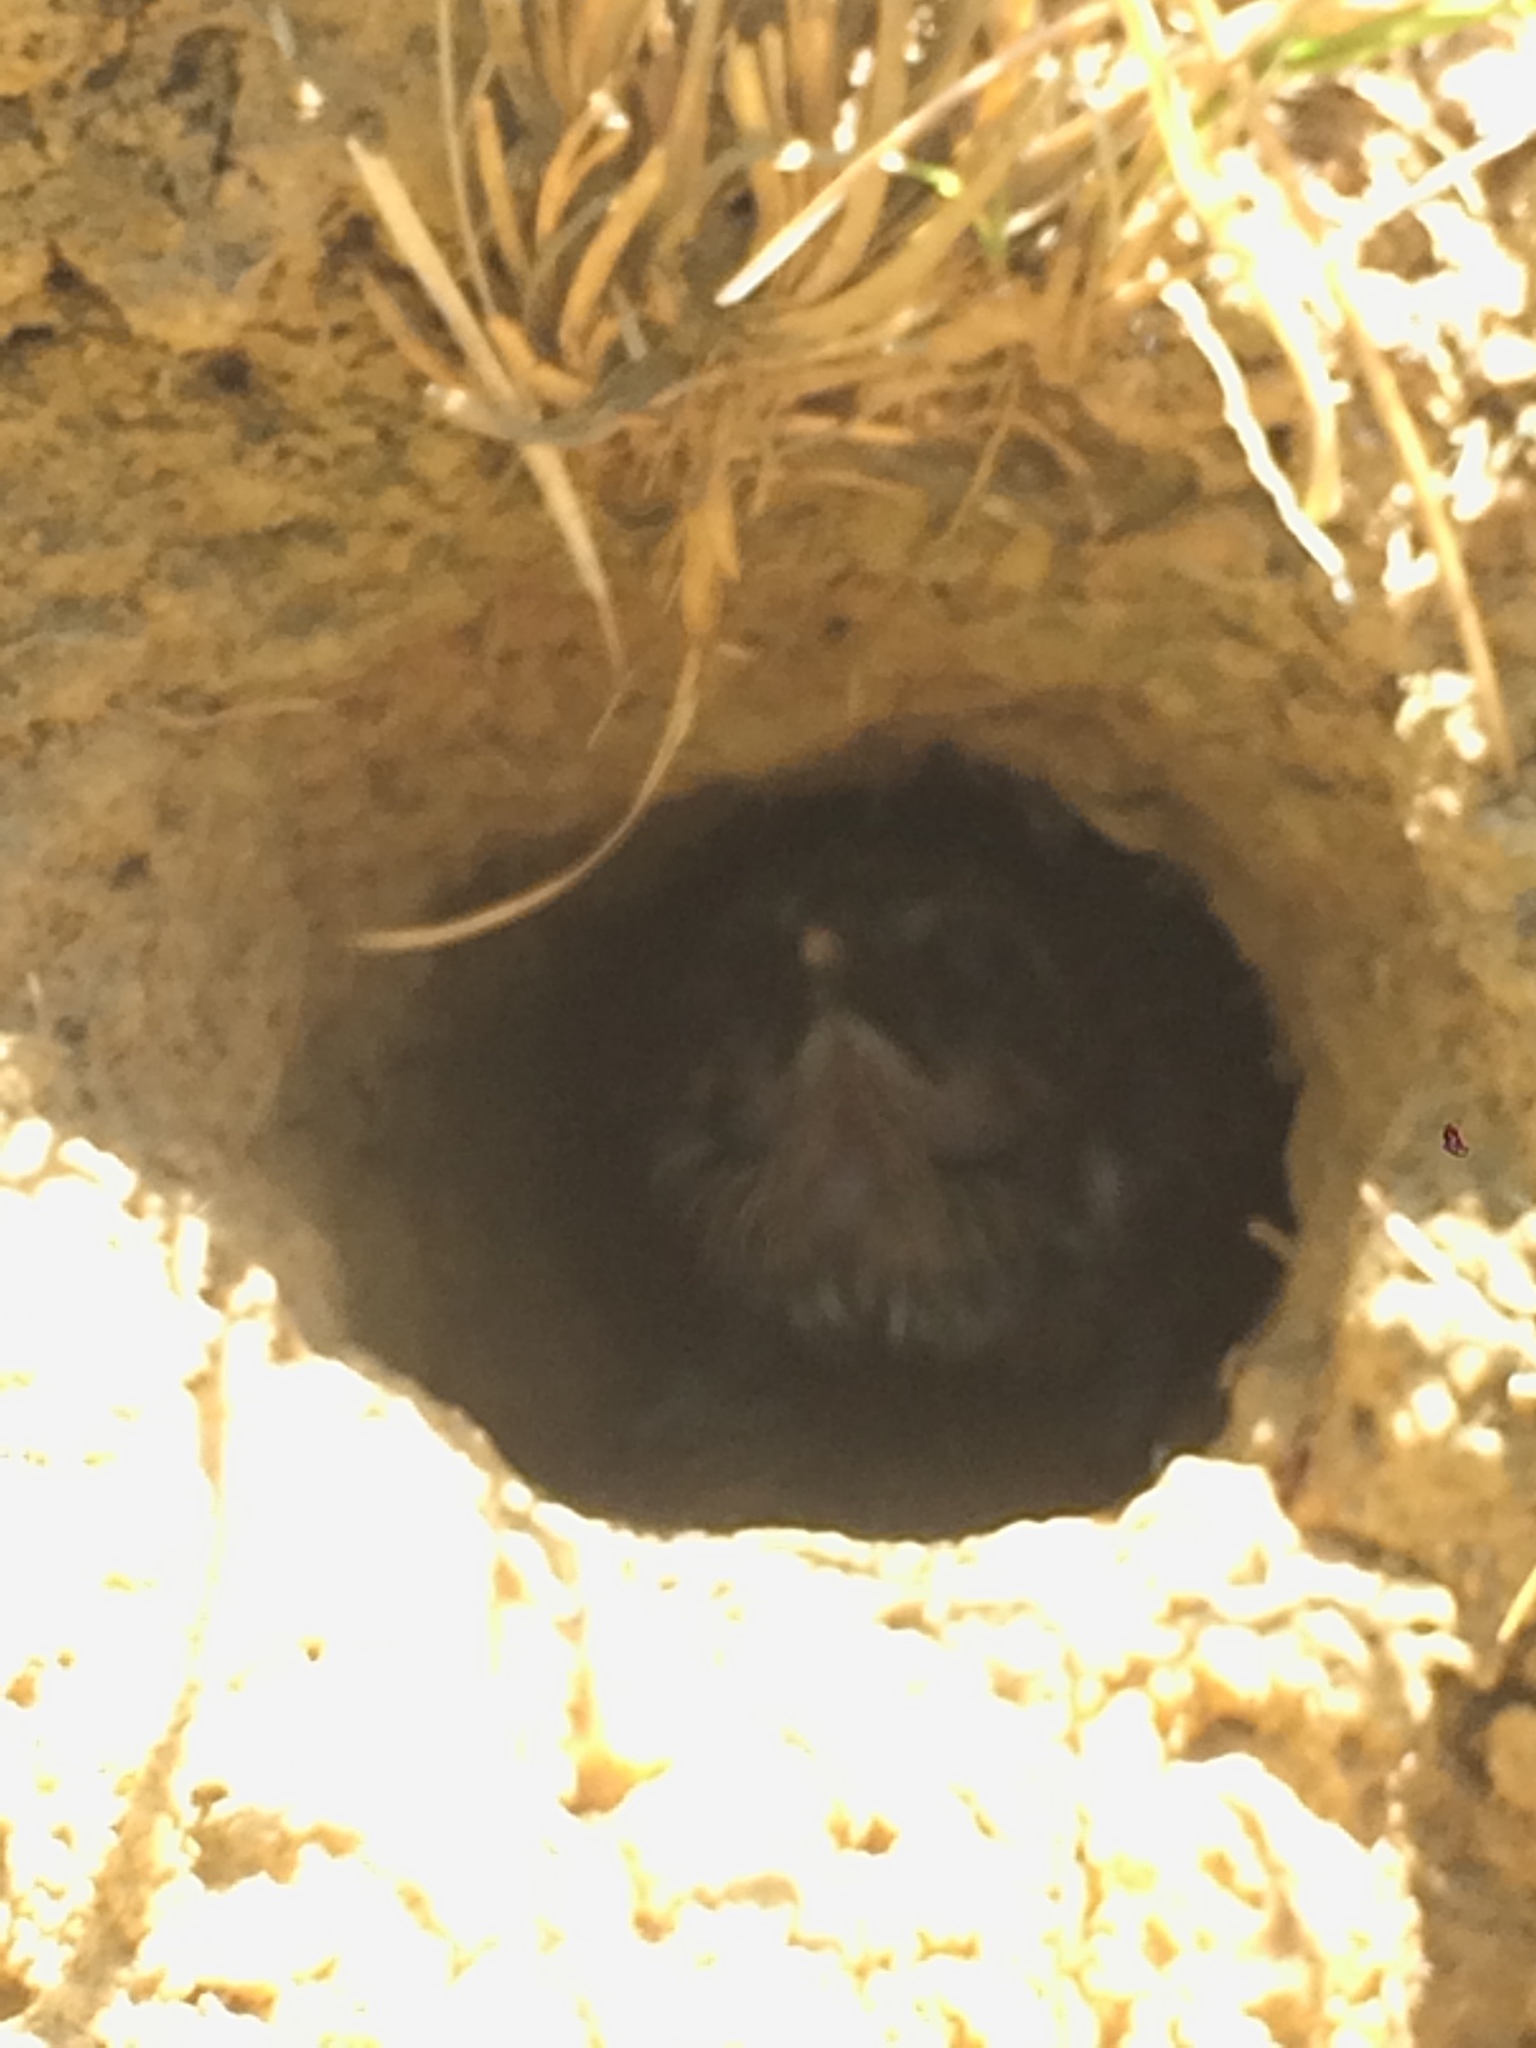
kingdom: Animalia
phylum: Chordata
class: Aves
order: Piciformes
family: Bucconidae
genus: Nystalus
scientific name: Nystalus maculatus
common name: Caatinga puffbird
